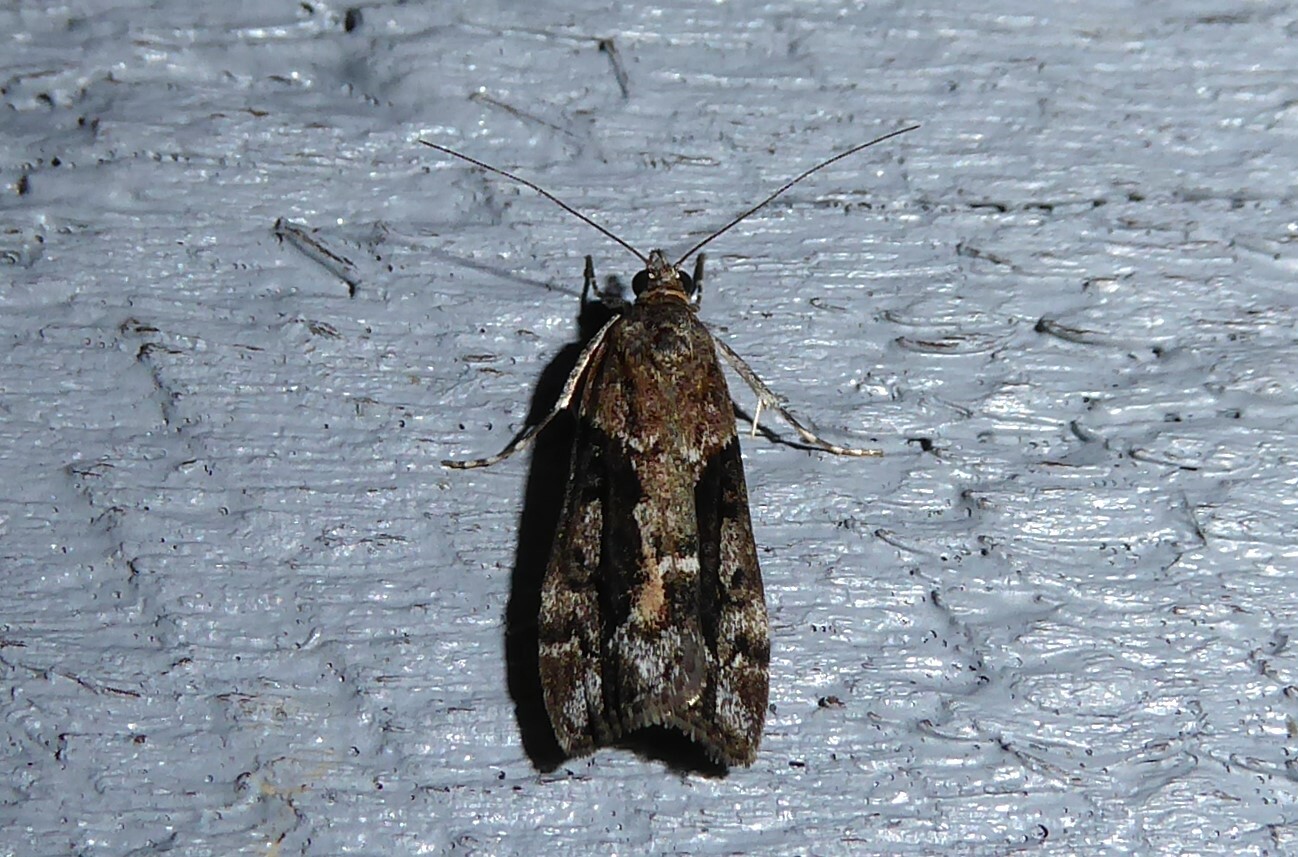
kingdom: Animalia
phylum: Arthropoda
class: Insecta
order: Lepidoptera
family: Crambidae
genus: Eudonia
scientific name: Eudonia submarginalis
